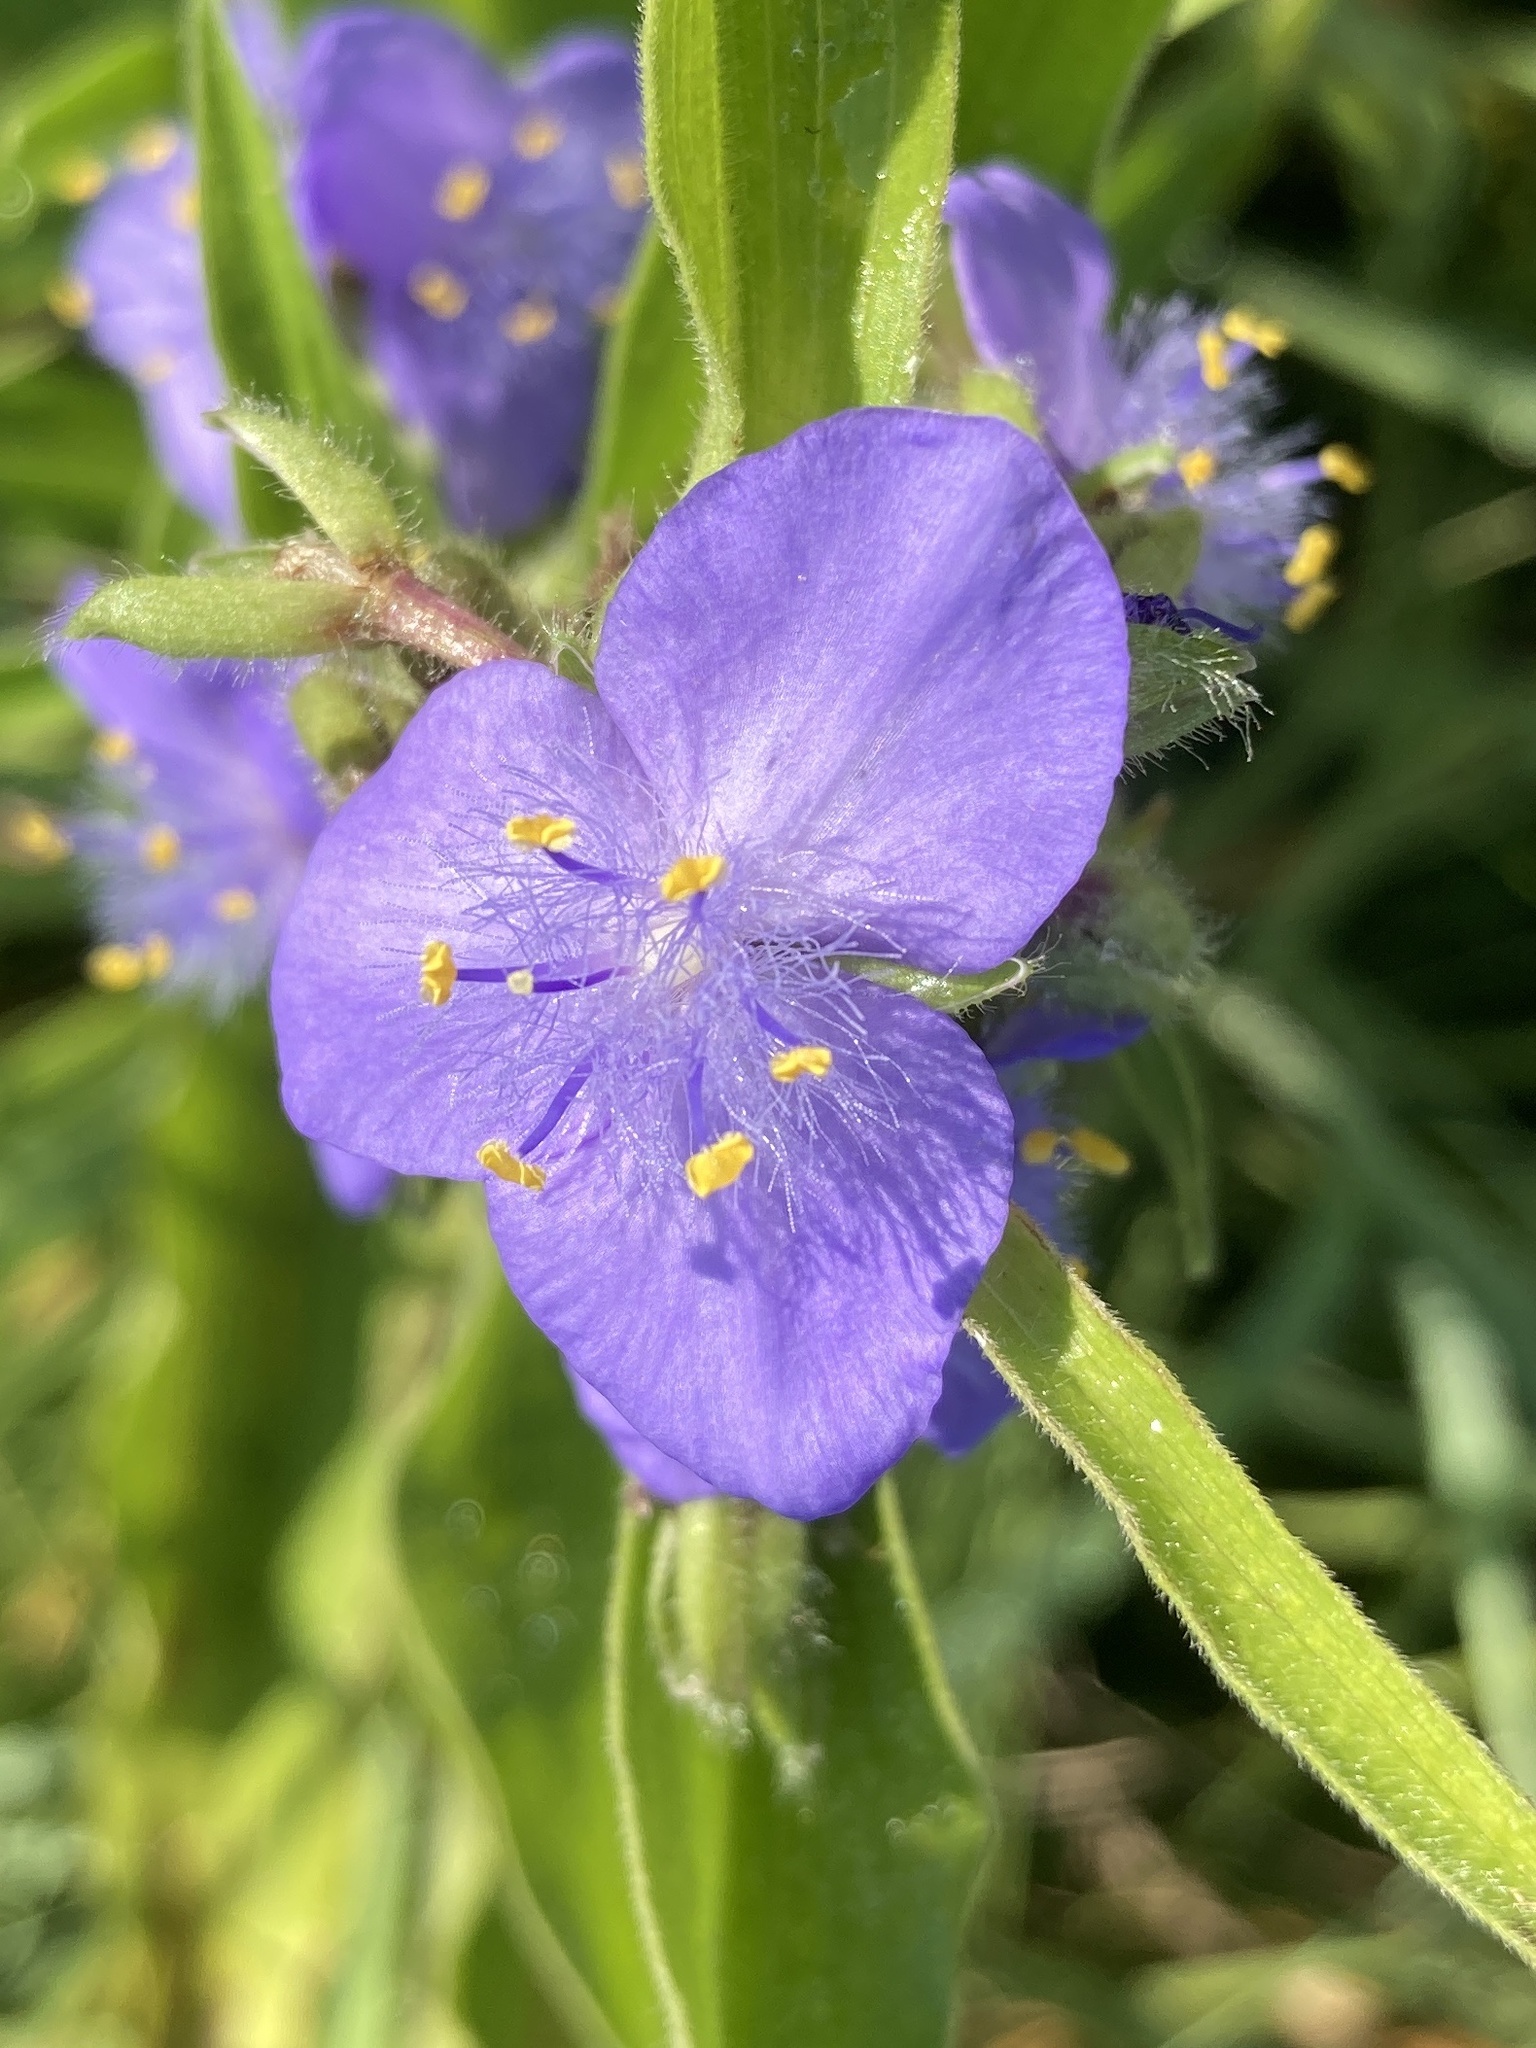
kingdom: Plantae
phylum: Tracheophyta
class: Liliopsida
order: Commelinales
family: Commelinaceae
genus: Tradescantia
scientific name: Tradescantia subaspera
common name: Wide-leaf spiderwort
